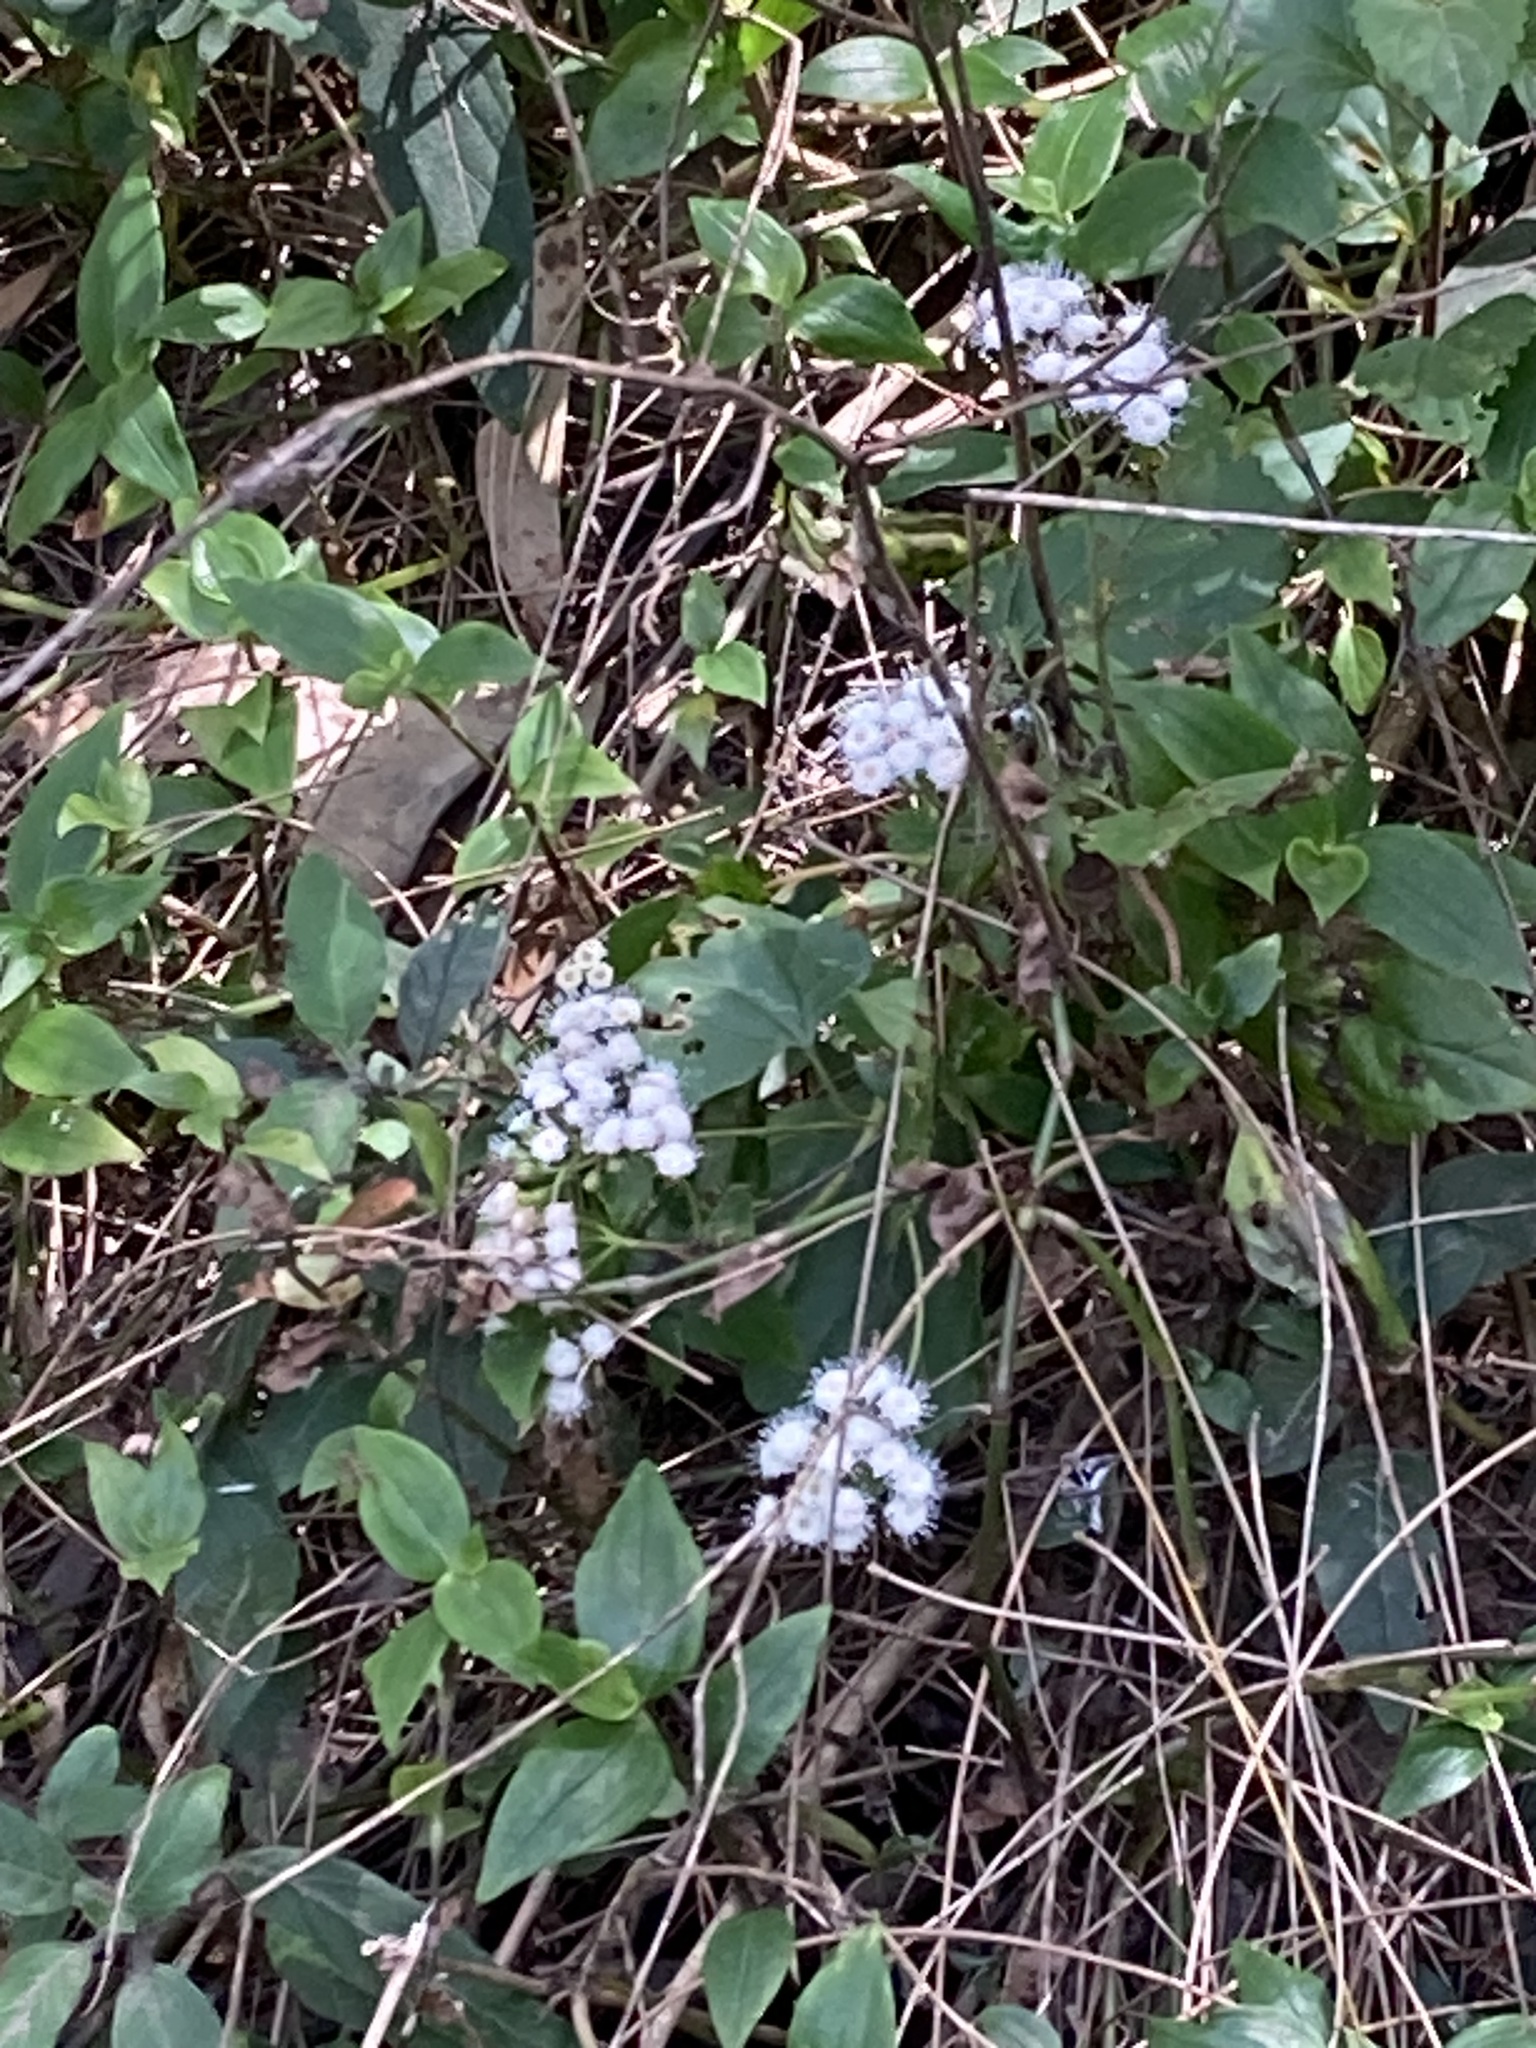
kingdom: Plantae
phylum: Tracheophyta
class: Magnoliopsida
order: Asterales
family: Asteraceae
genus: Ageratina
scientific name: Ageratina adenophora
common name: Sticky snakeroot
